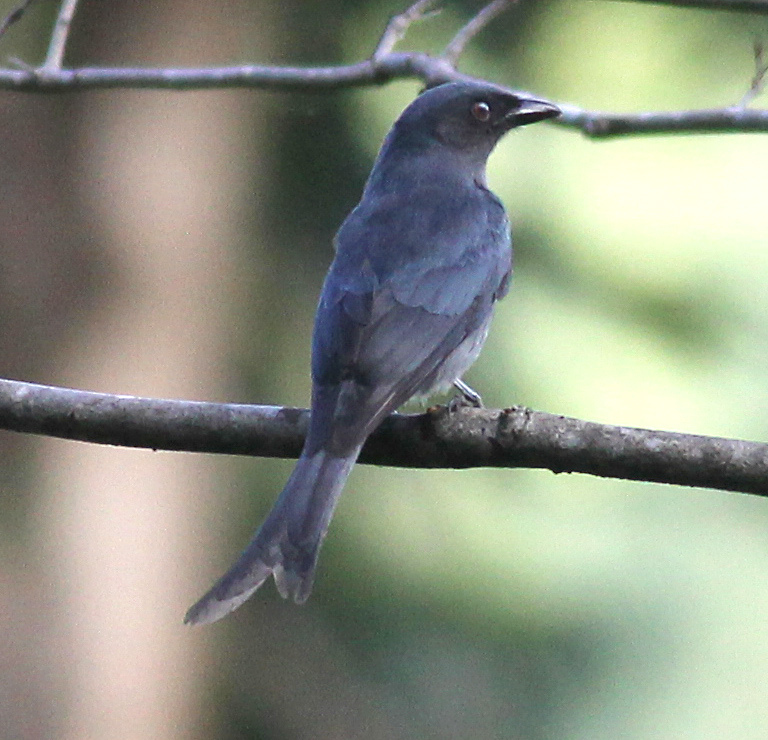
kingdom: Animalia
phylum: Chordata
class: Aves
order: Passeriformes
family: Dicruridae
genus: Dicrurus
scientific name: Dicrurus leucophaeus
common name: Ashy drongo
